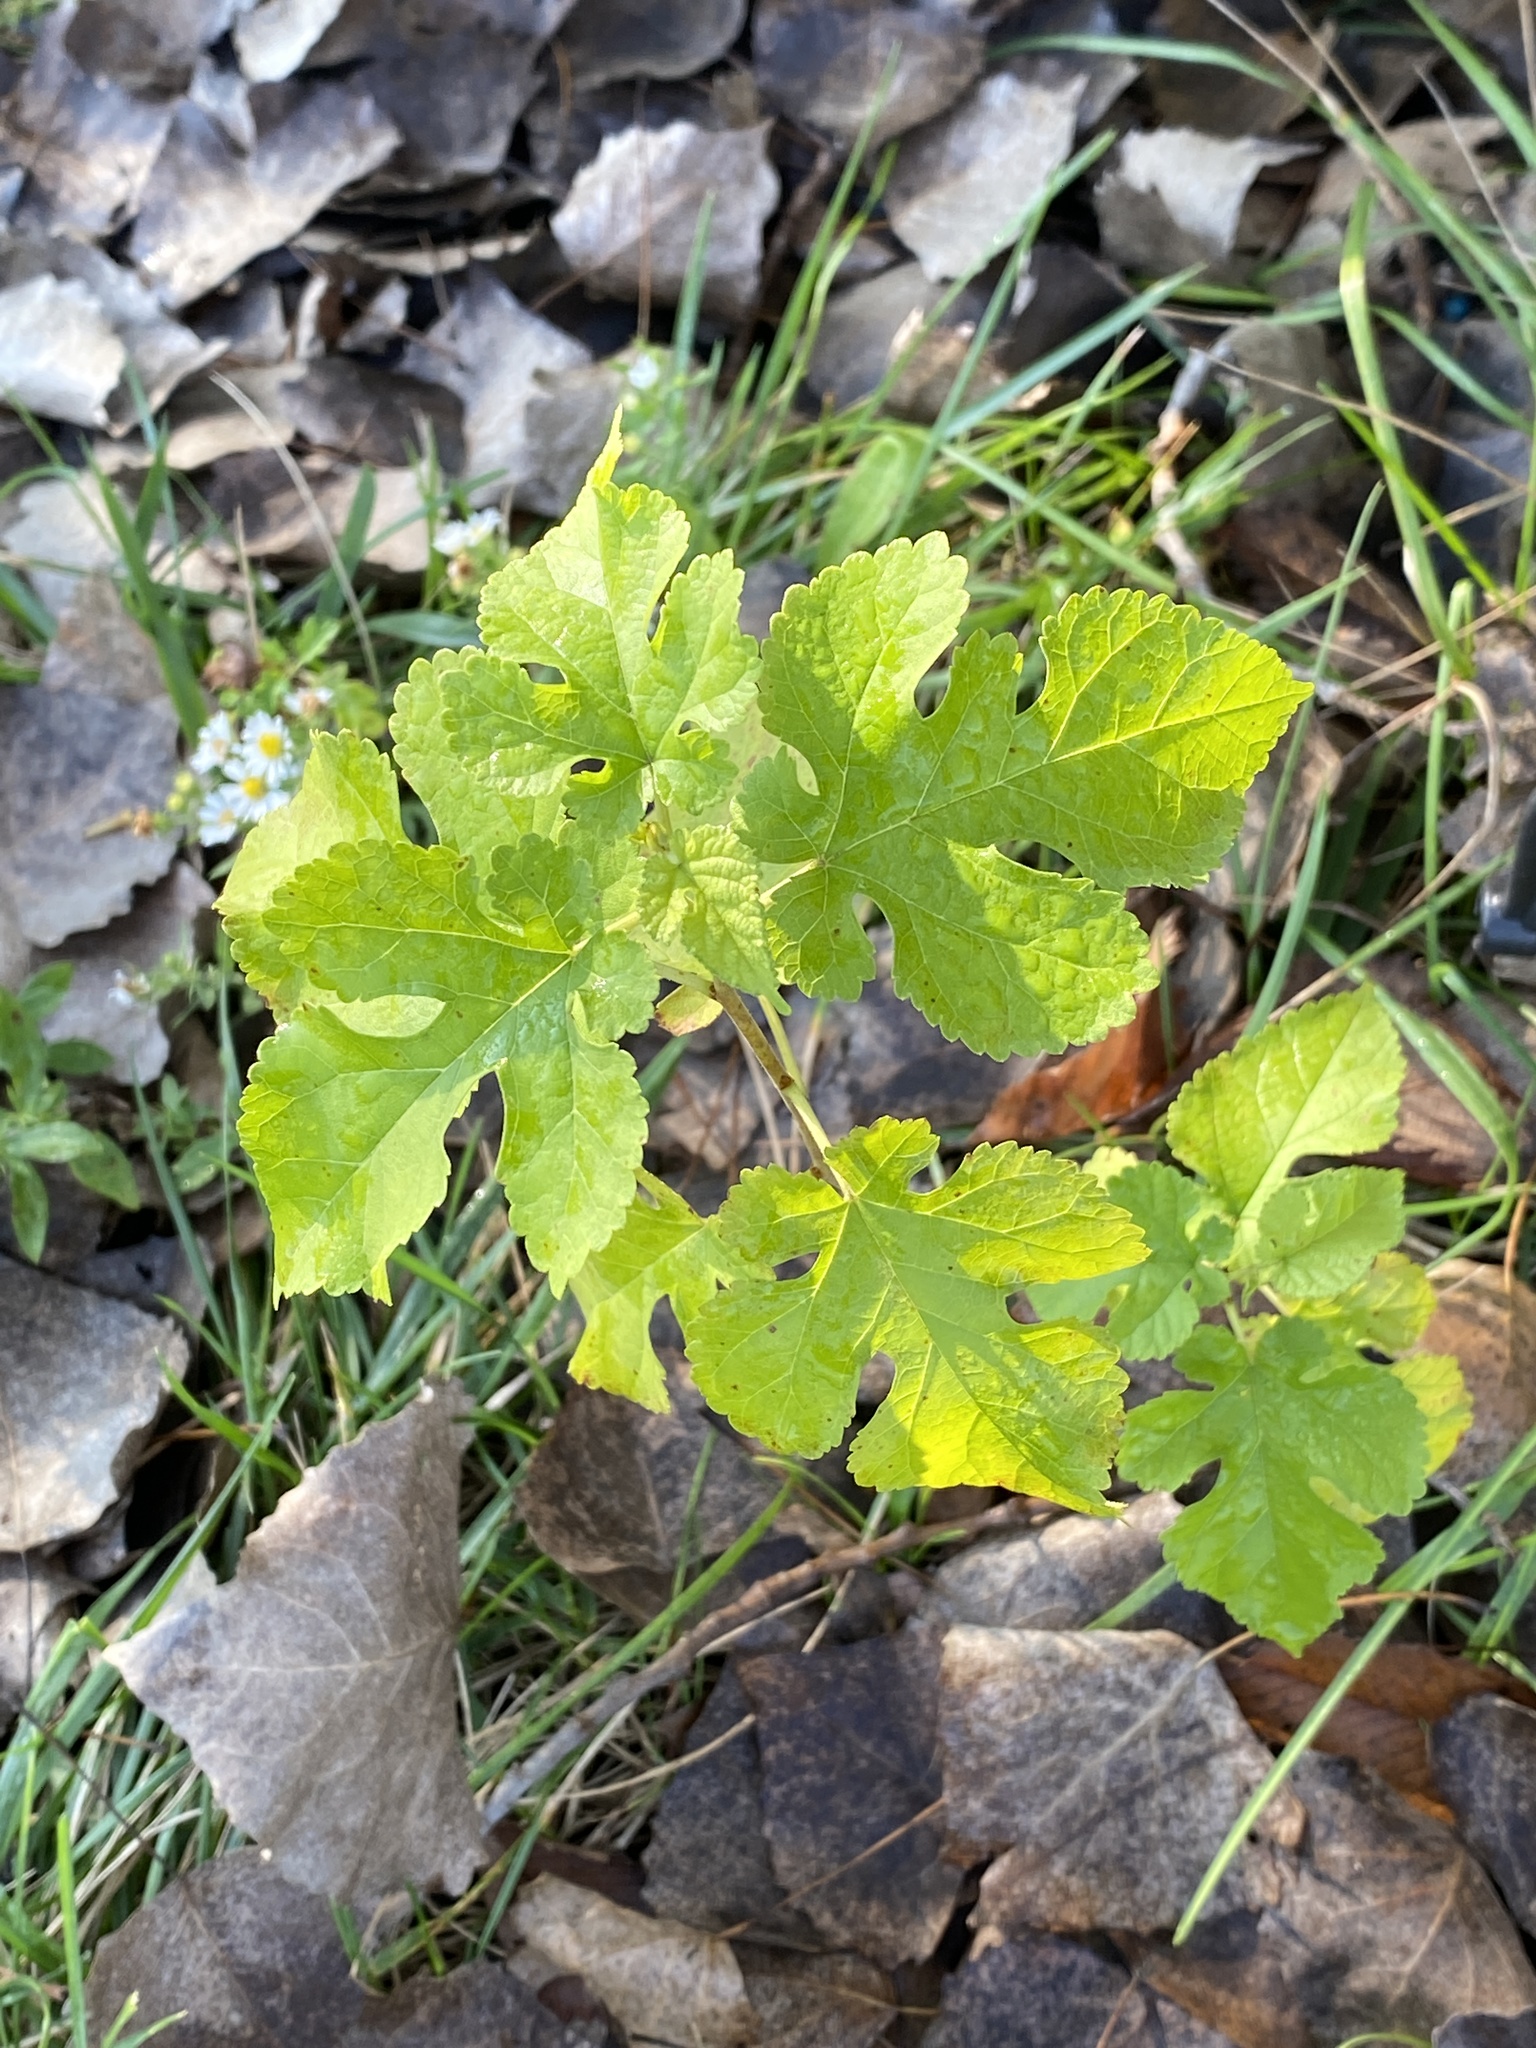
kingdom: Plantae
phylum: Tracheophyta
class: Magnoliopsida
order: Rosales
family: Moraceae
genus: Morus
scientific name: Morus alba
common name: White mulberry
